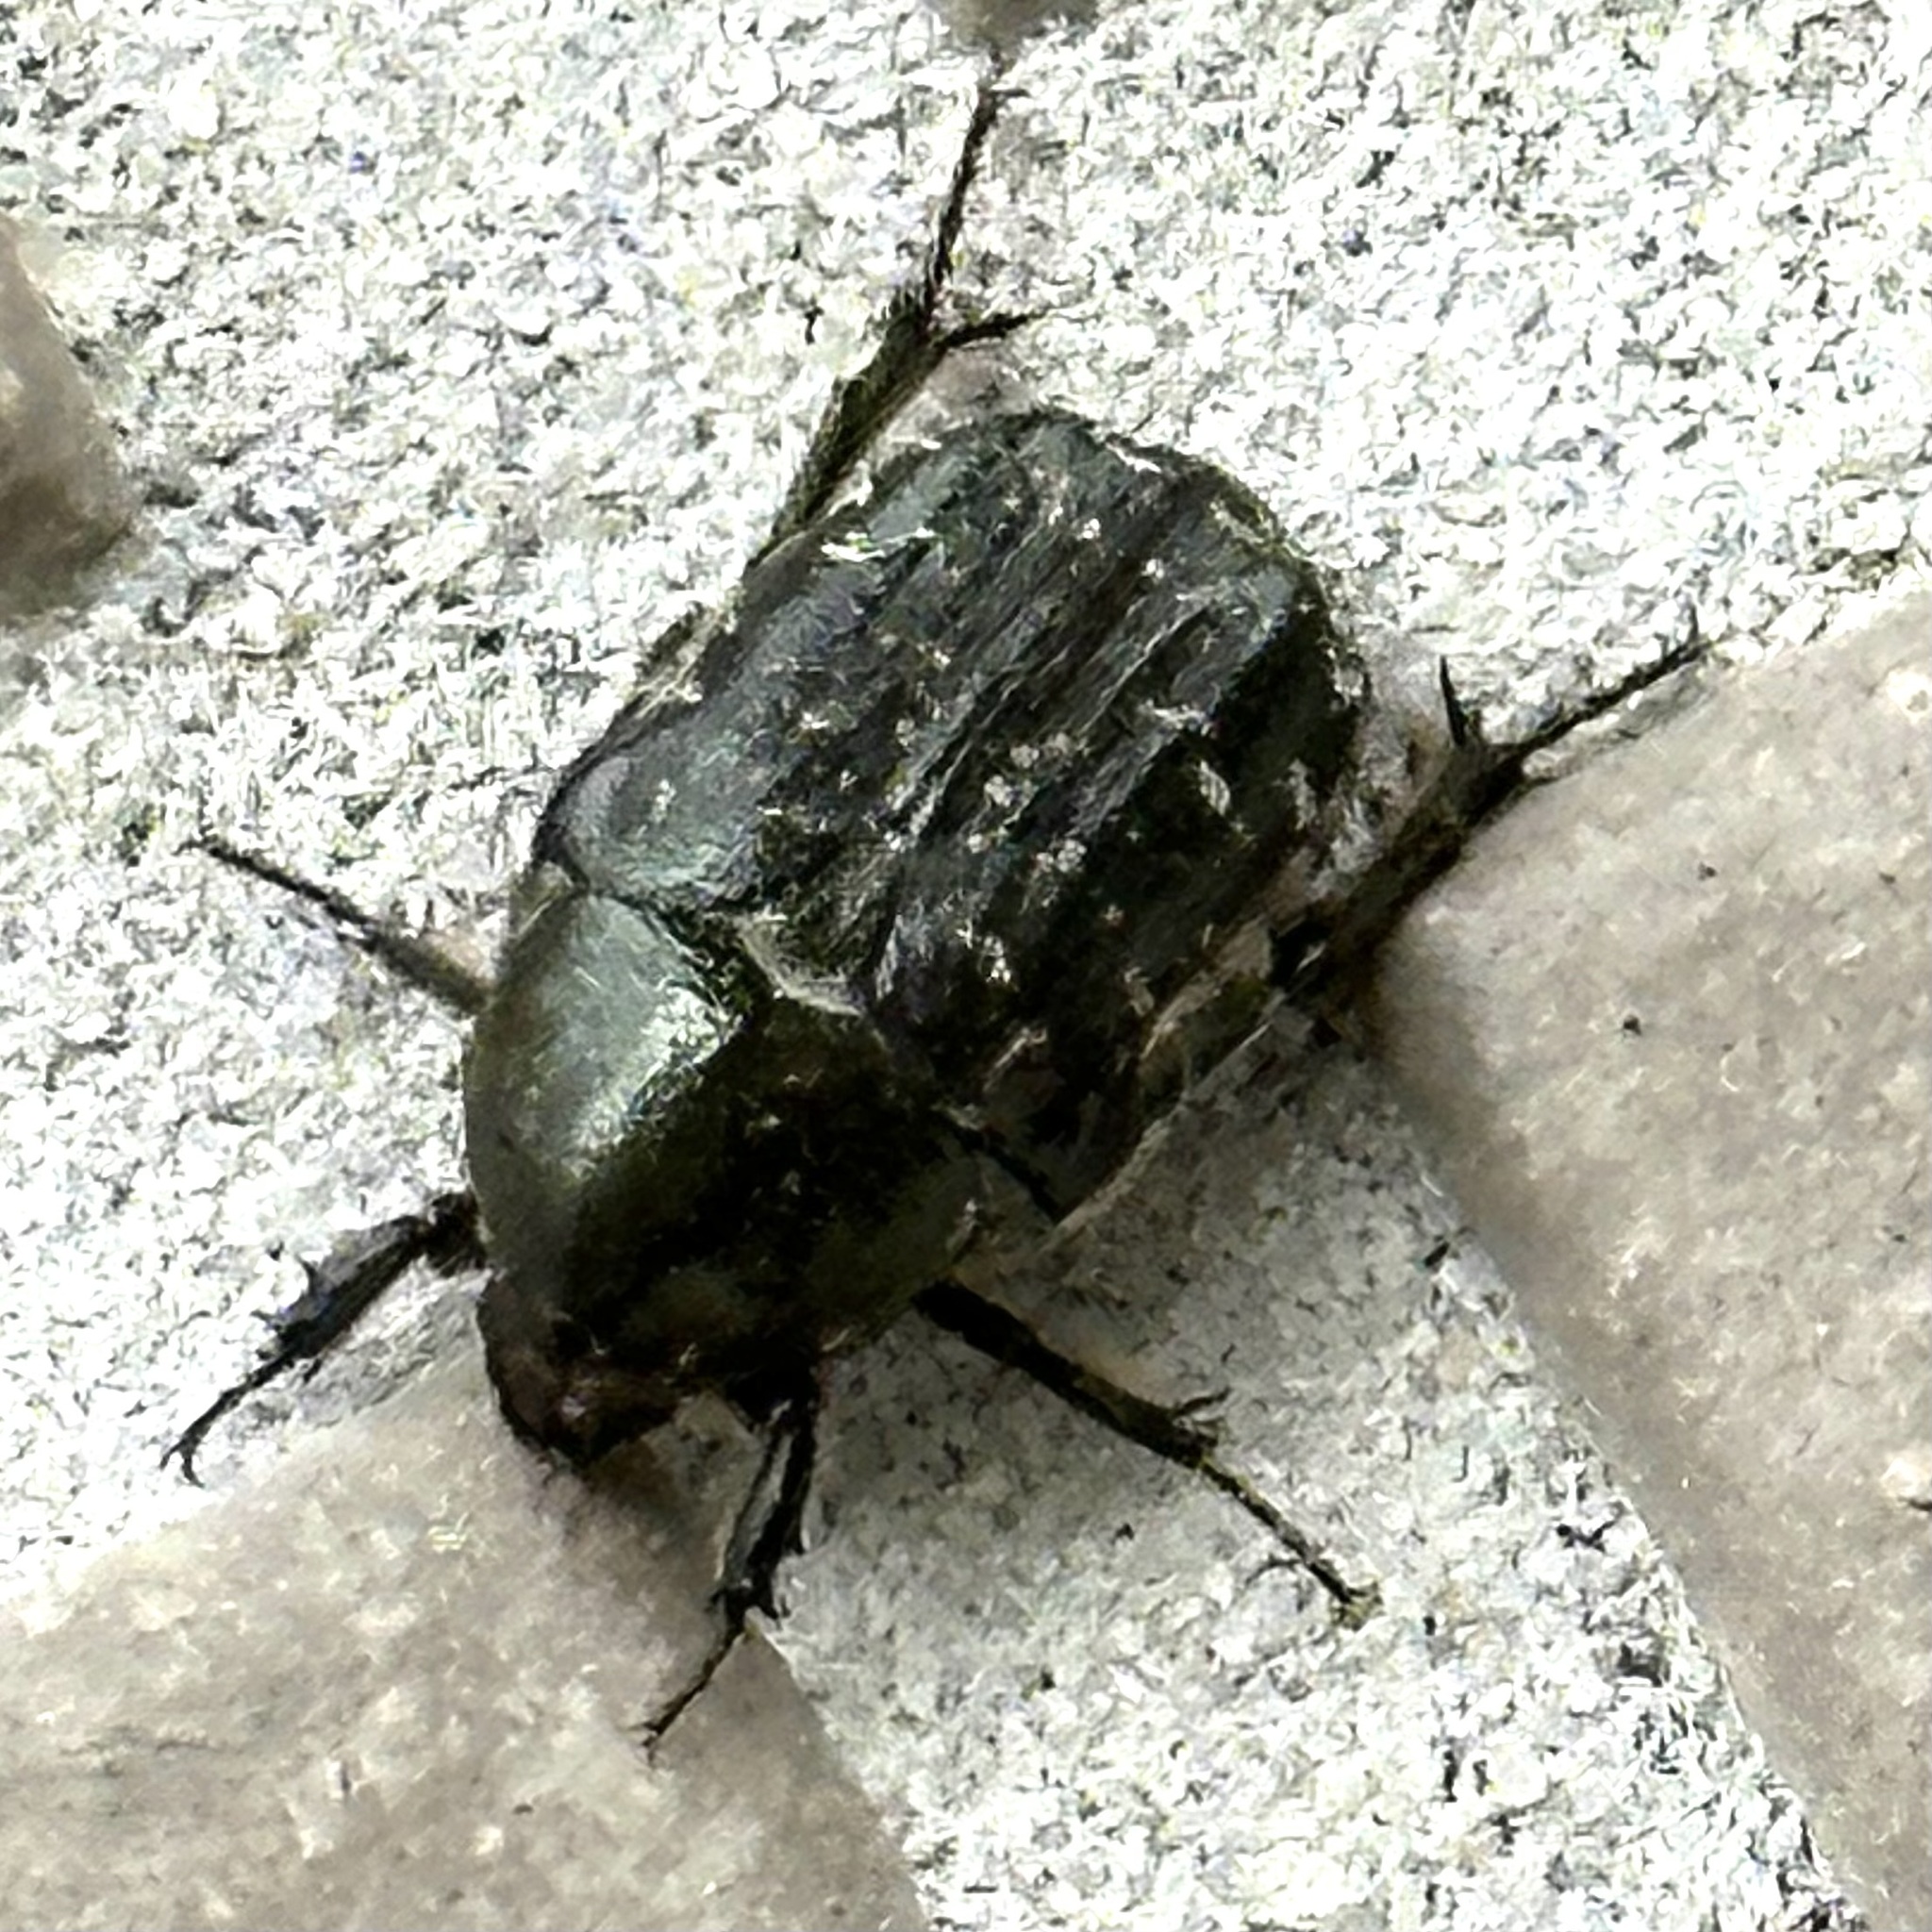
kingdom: Animalia
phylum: Arthropoda
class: Insecta
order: Coleoptera
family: Scarabaeidae
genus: Euphoria
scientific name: Euphoria sepulcralis
